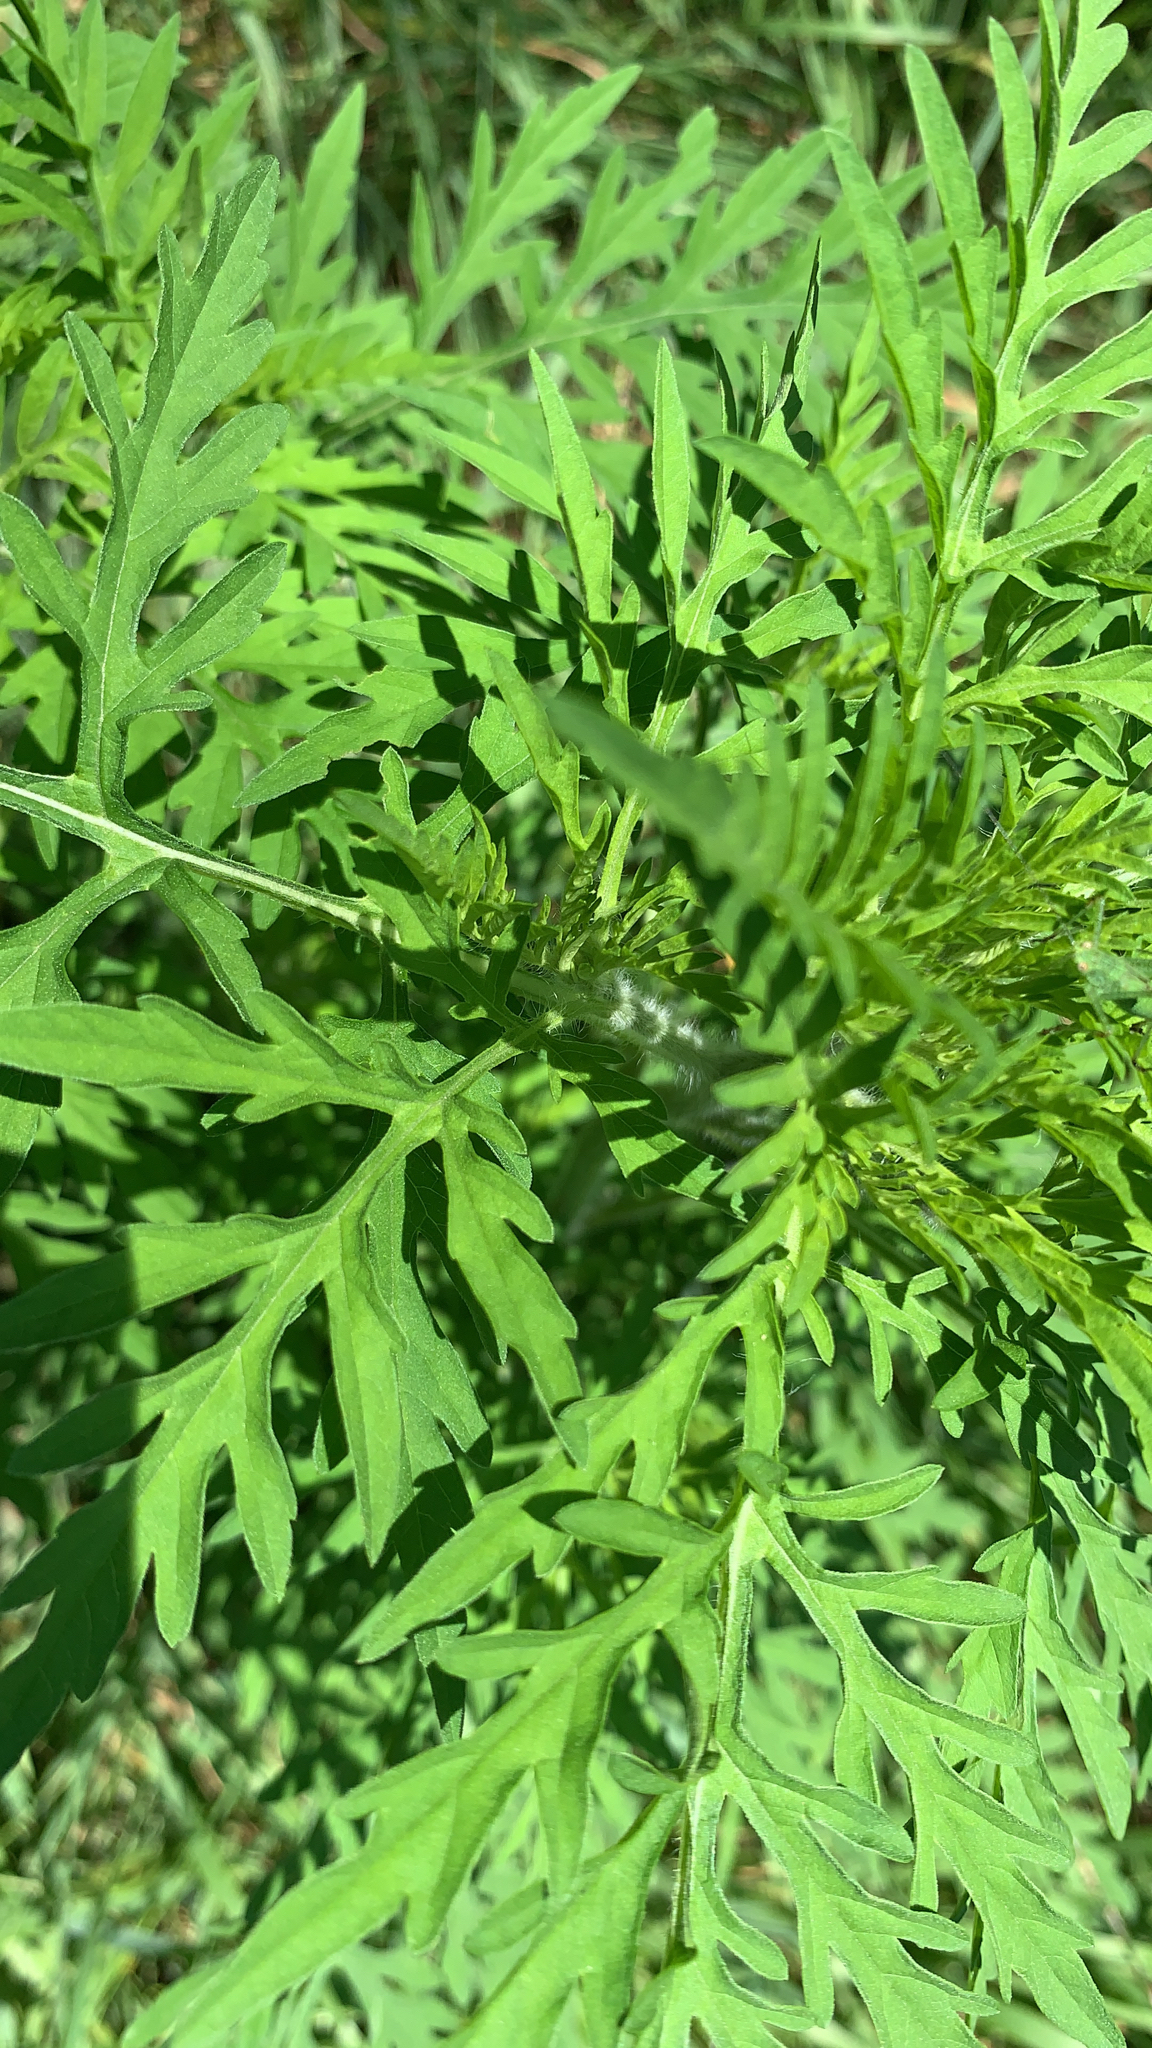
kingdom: Plantae
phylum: Tracheophyta
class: Magnoliopsida
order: Asterales
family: Asteraceae
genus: Ambrosia
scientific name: Ambrosia artemisiifolia
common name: Annual ragweed
